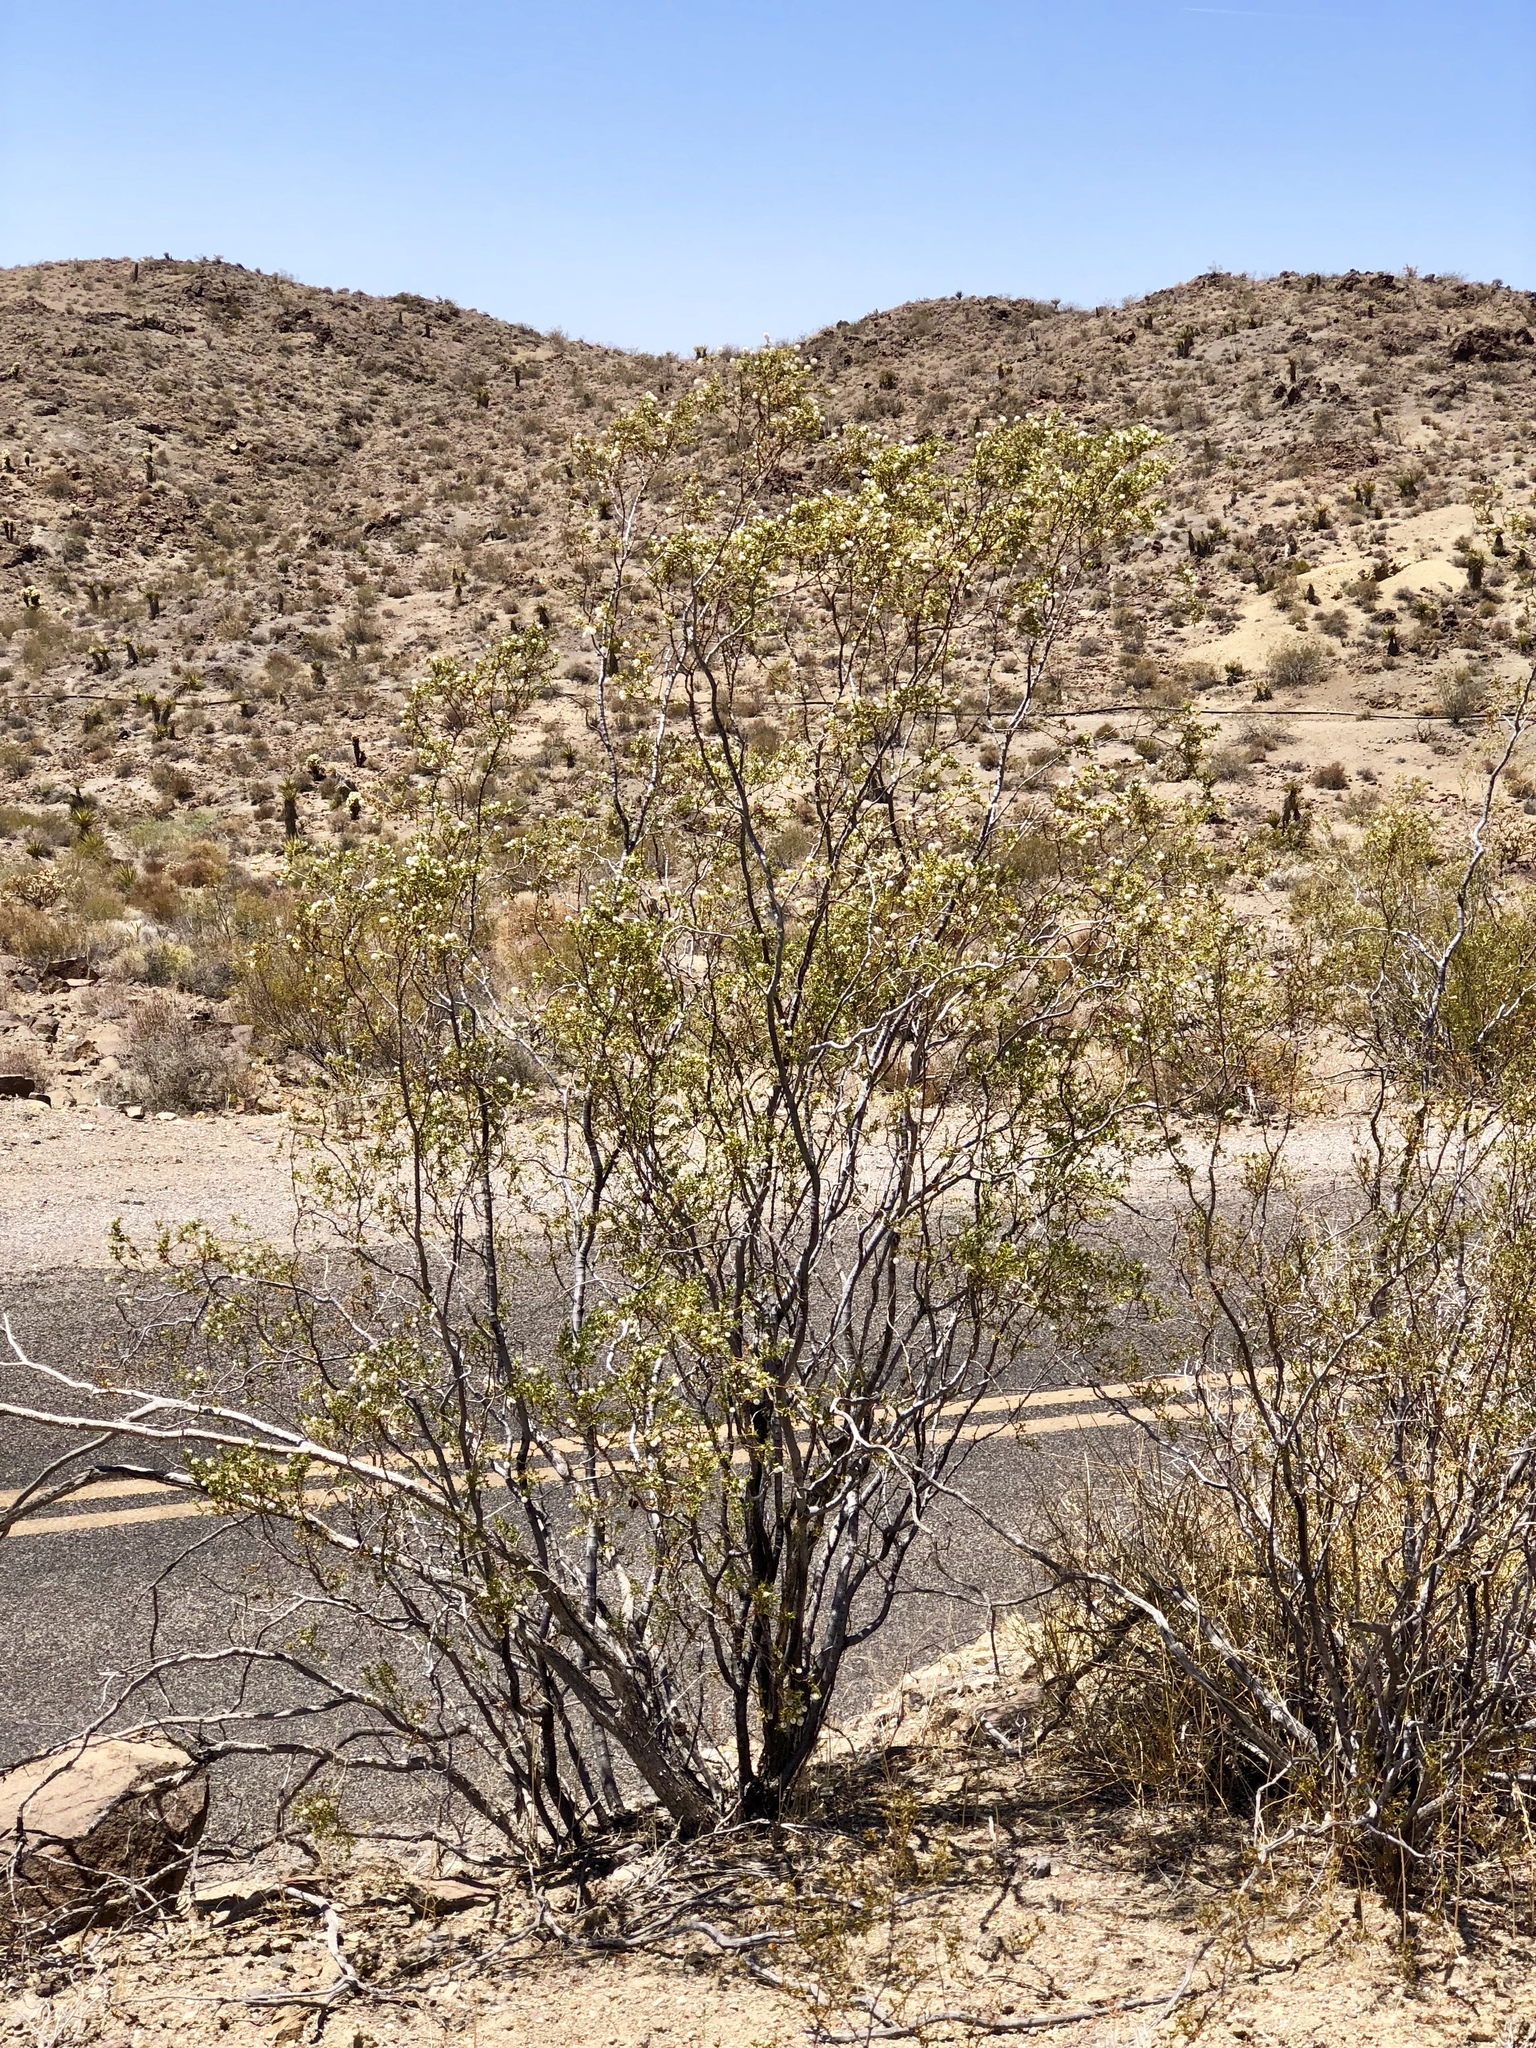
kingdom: Plantae
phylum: Tracheophyta
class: Magnoliopsida
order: Zygophyllales
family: Zygophyllaceae
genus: Larrea
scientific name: Larrea tridentata
